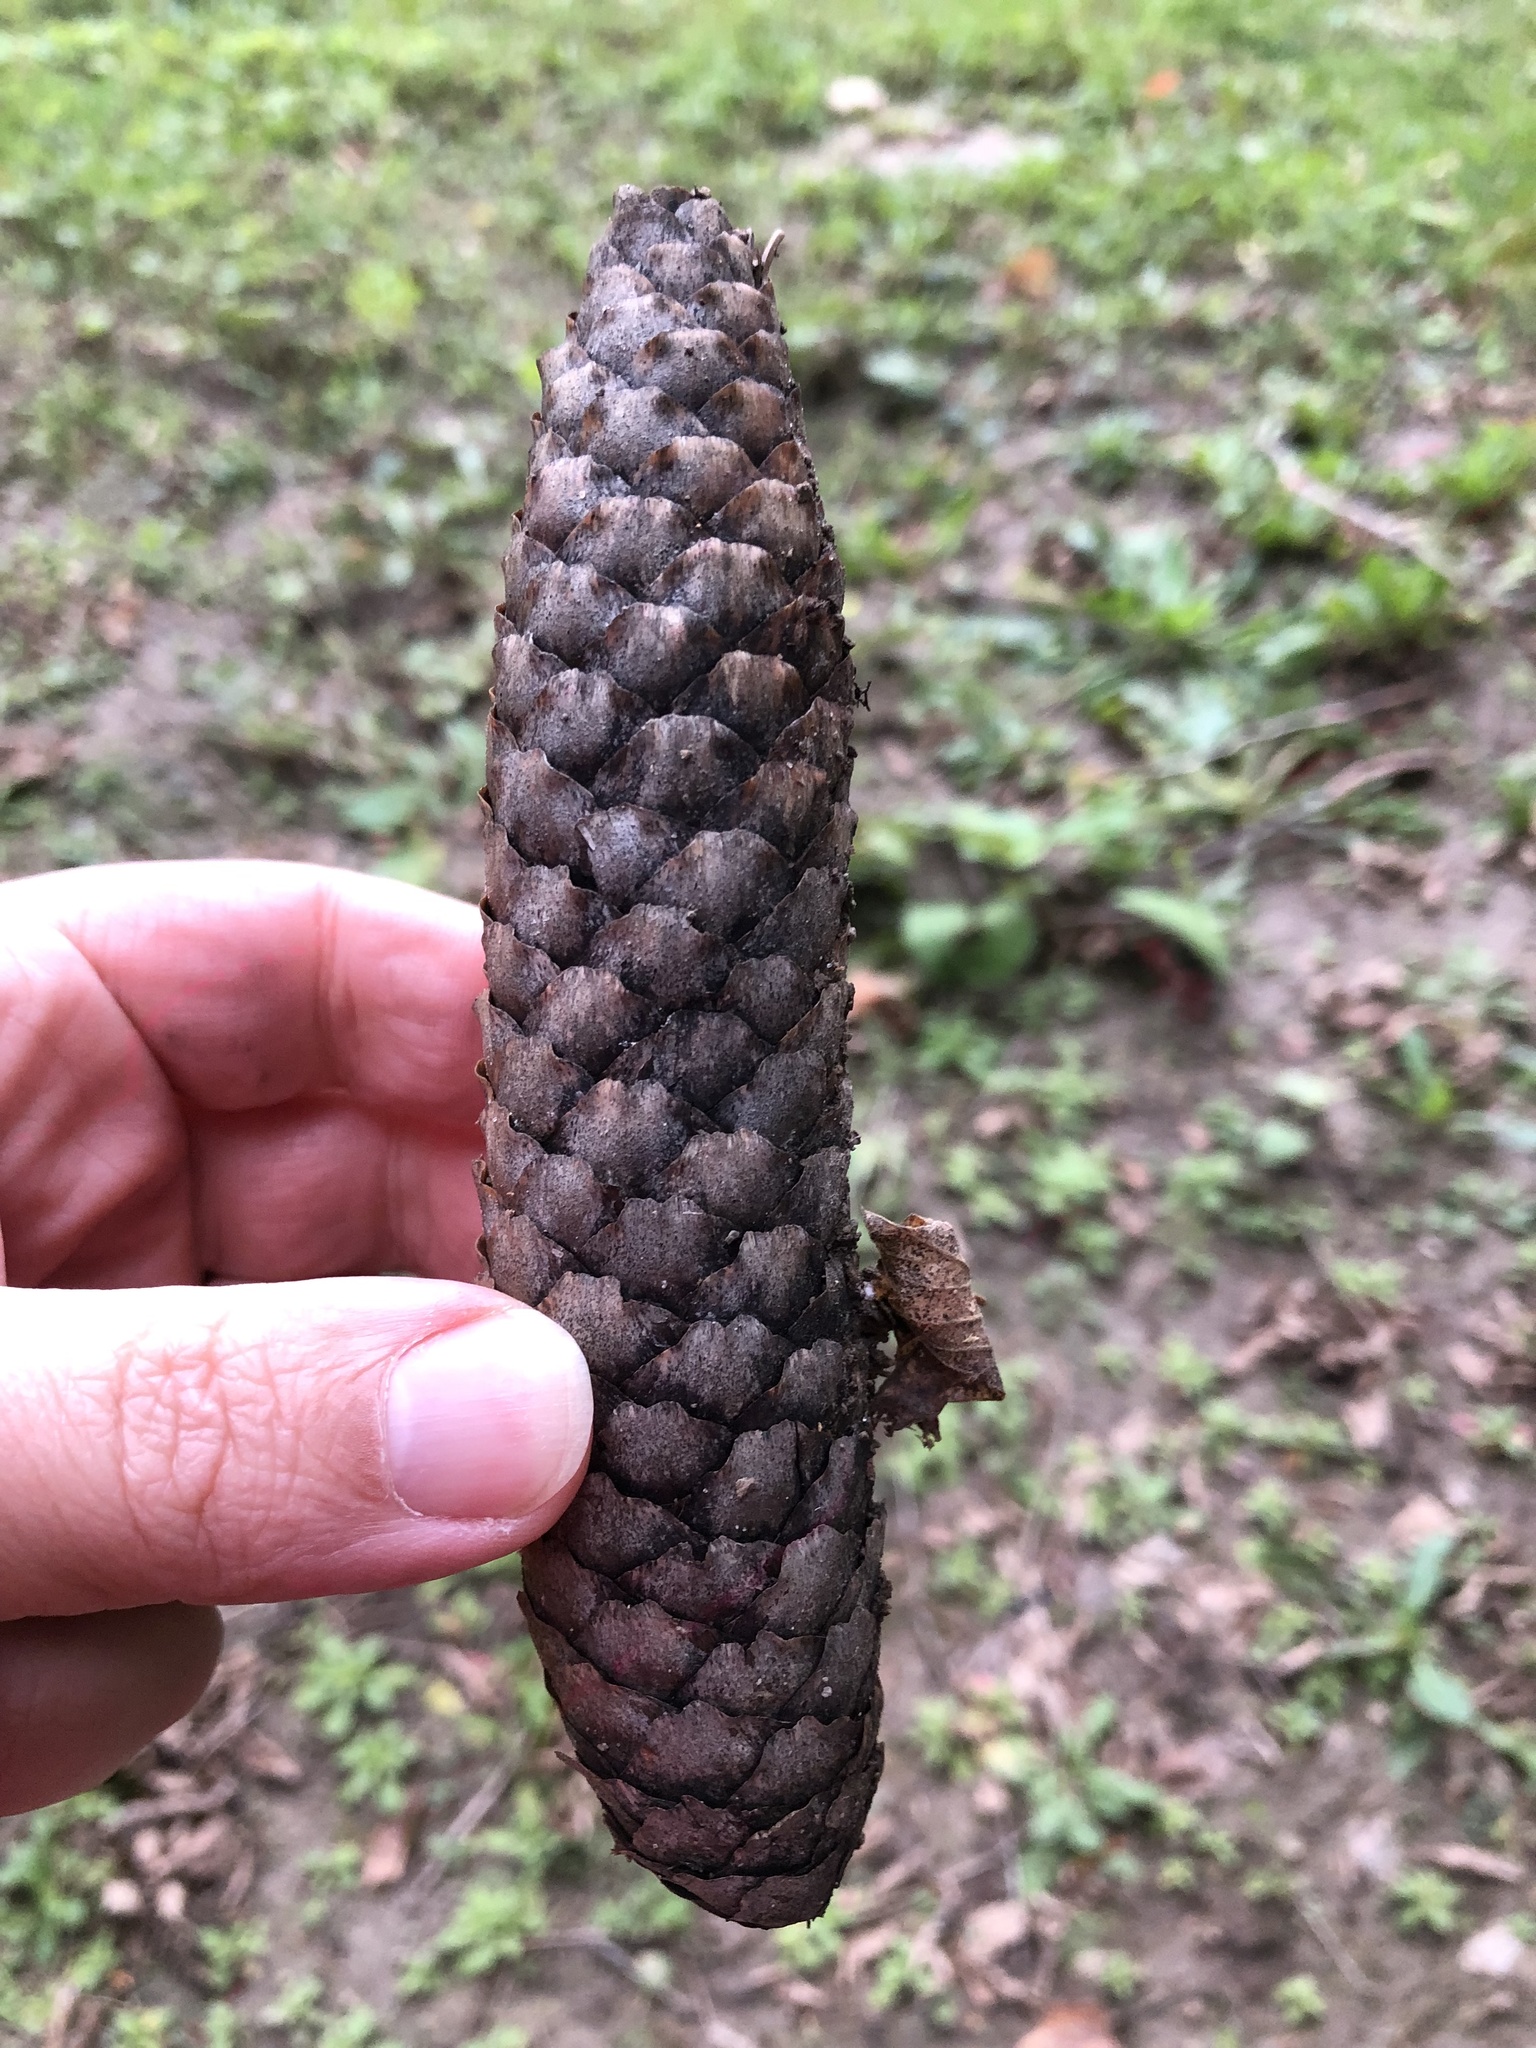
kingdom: Plantae
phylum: Tracheophyta
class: Pinopsida
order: Pinales
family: Pinaceae
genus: Picea
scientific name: Picea abies
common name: Norway spruce
